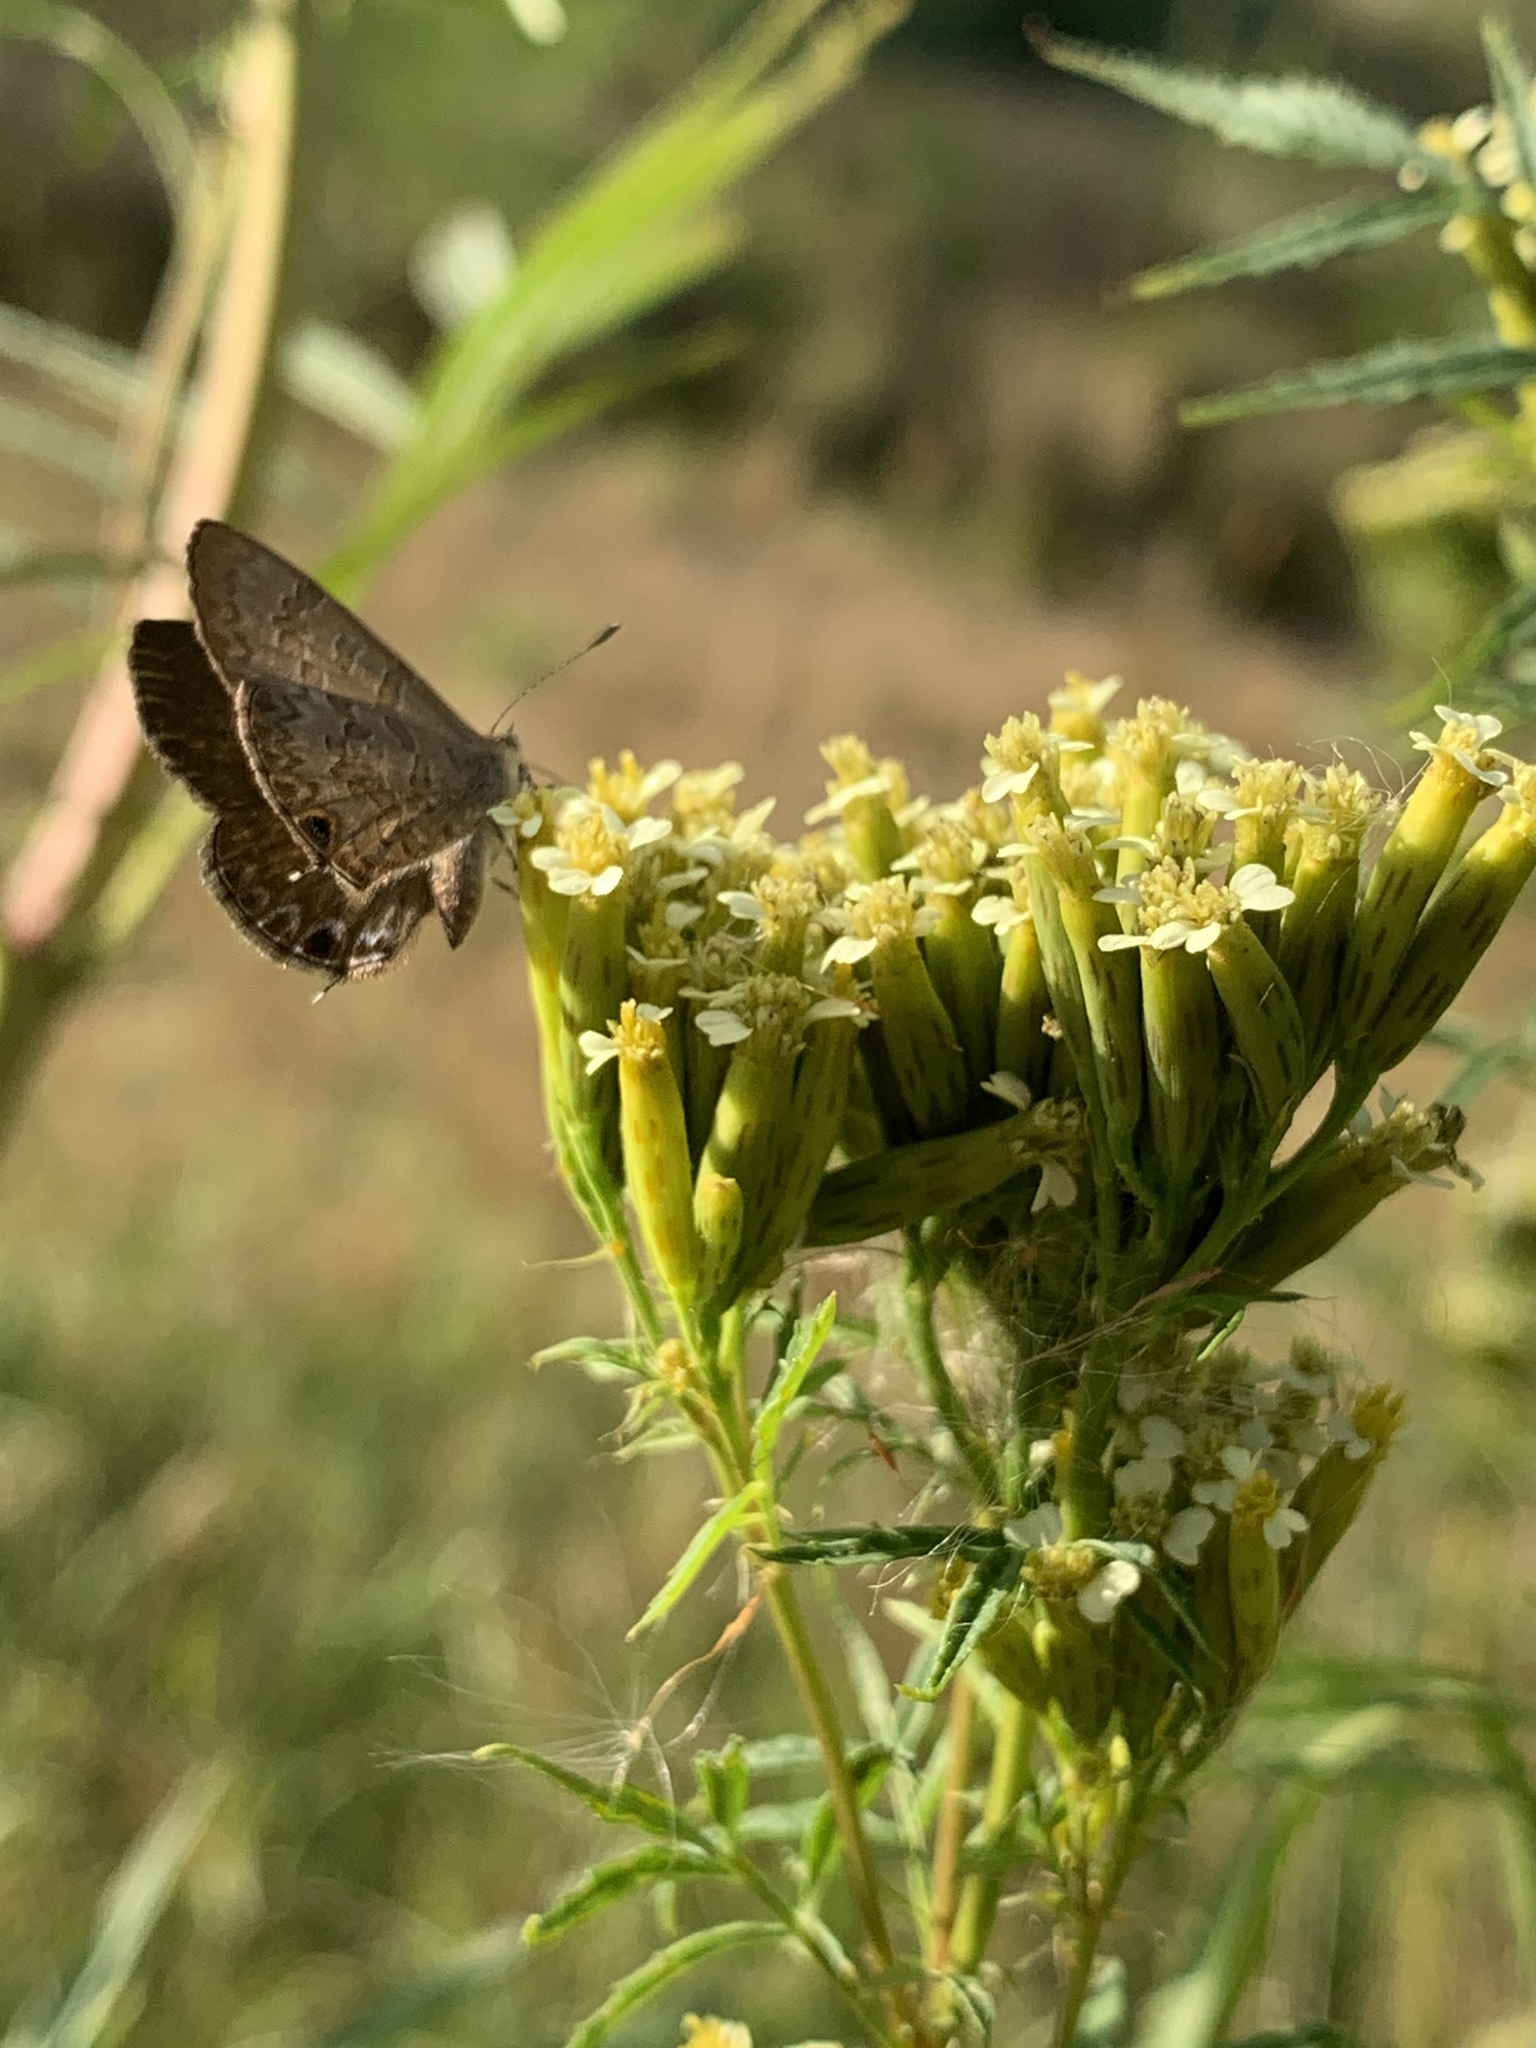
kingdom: Animalia
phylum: Arthropoda
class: Insecta
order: Lepidoptera
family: Lycaenidae
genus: Prosotas
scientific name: Prosotas felderi
